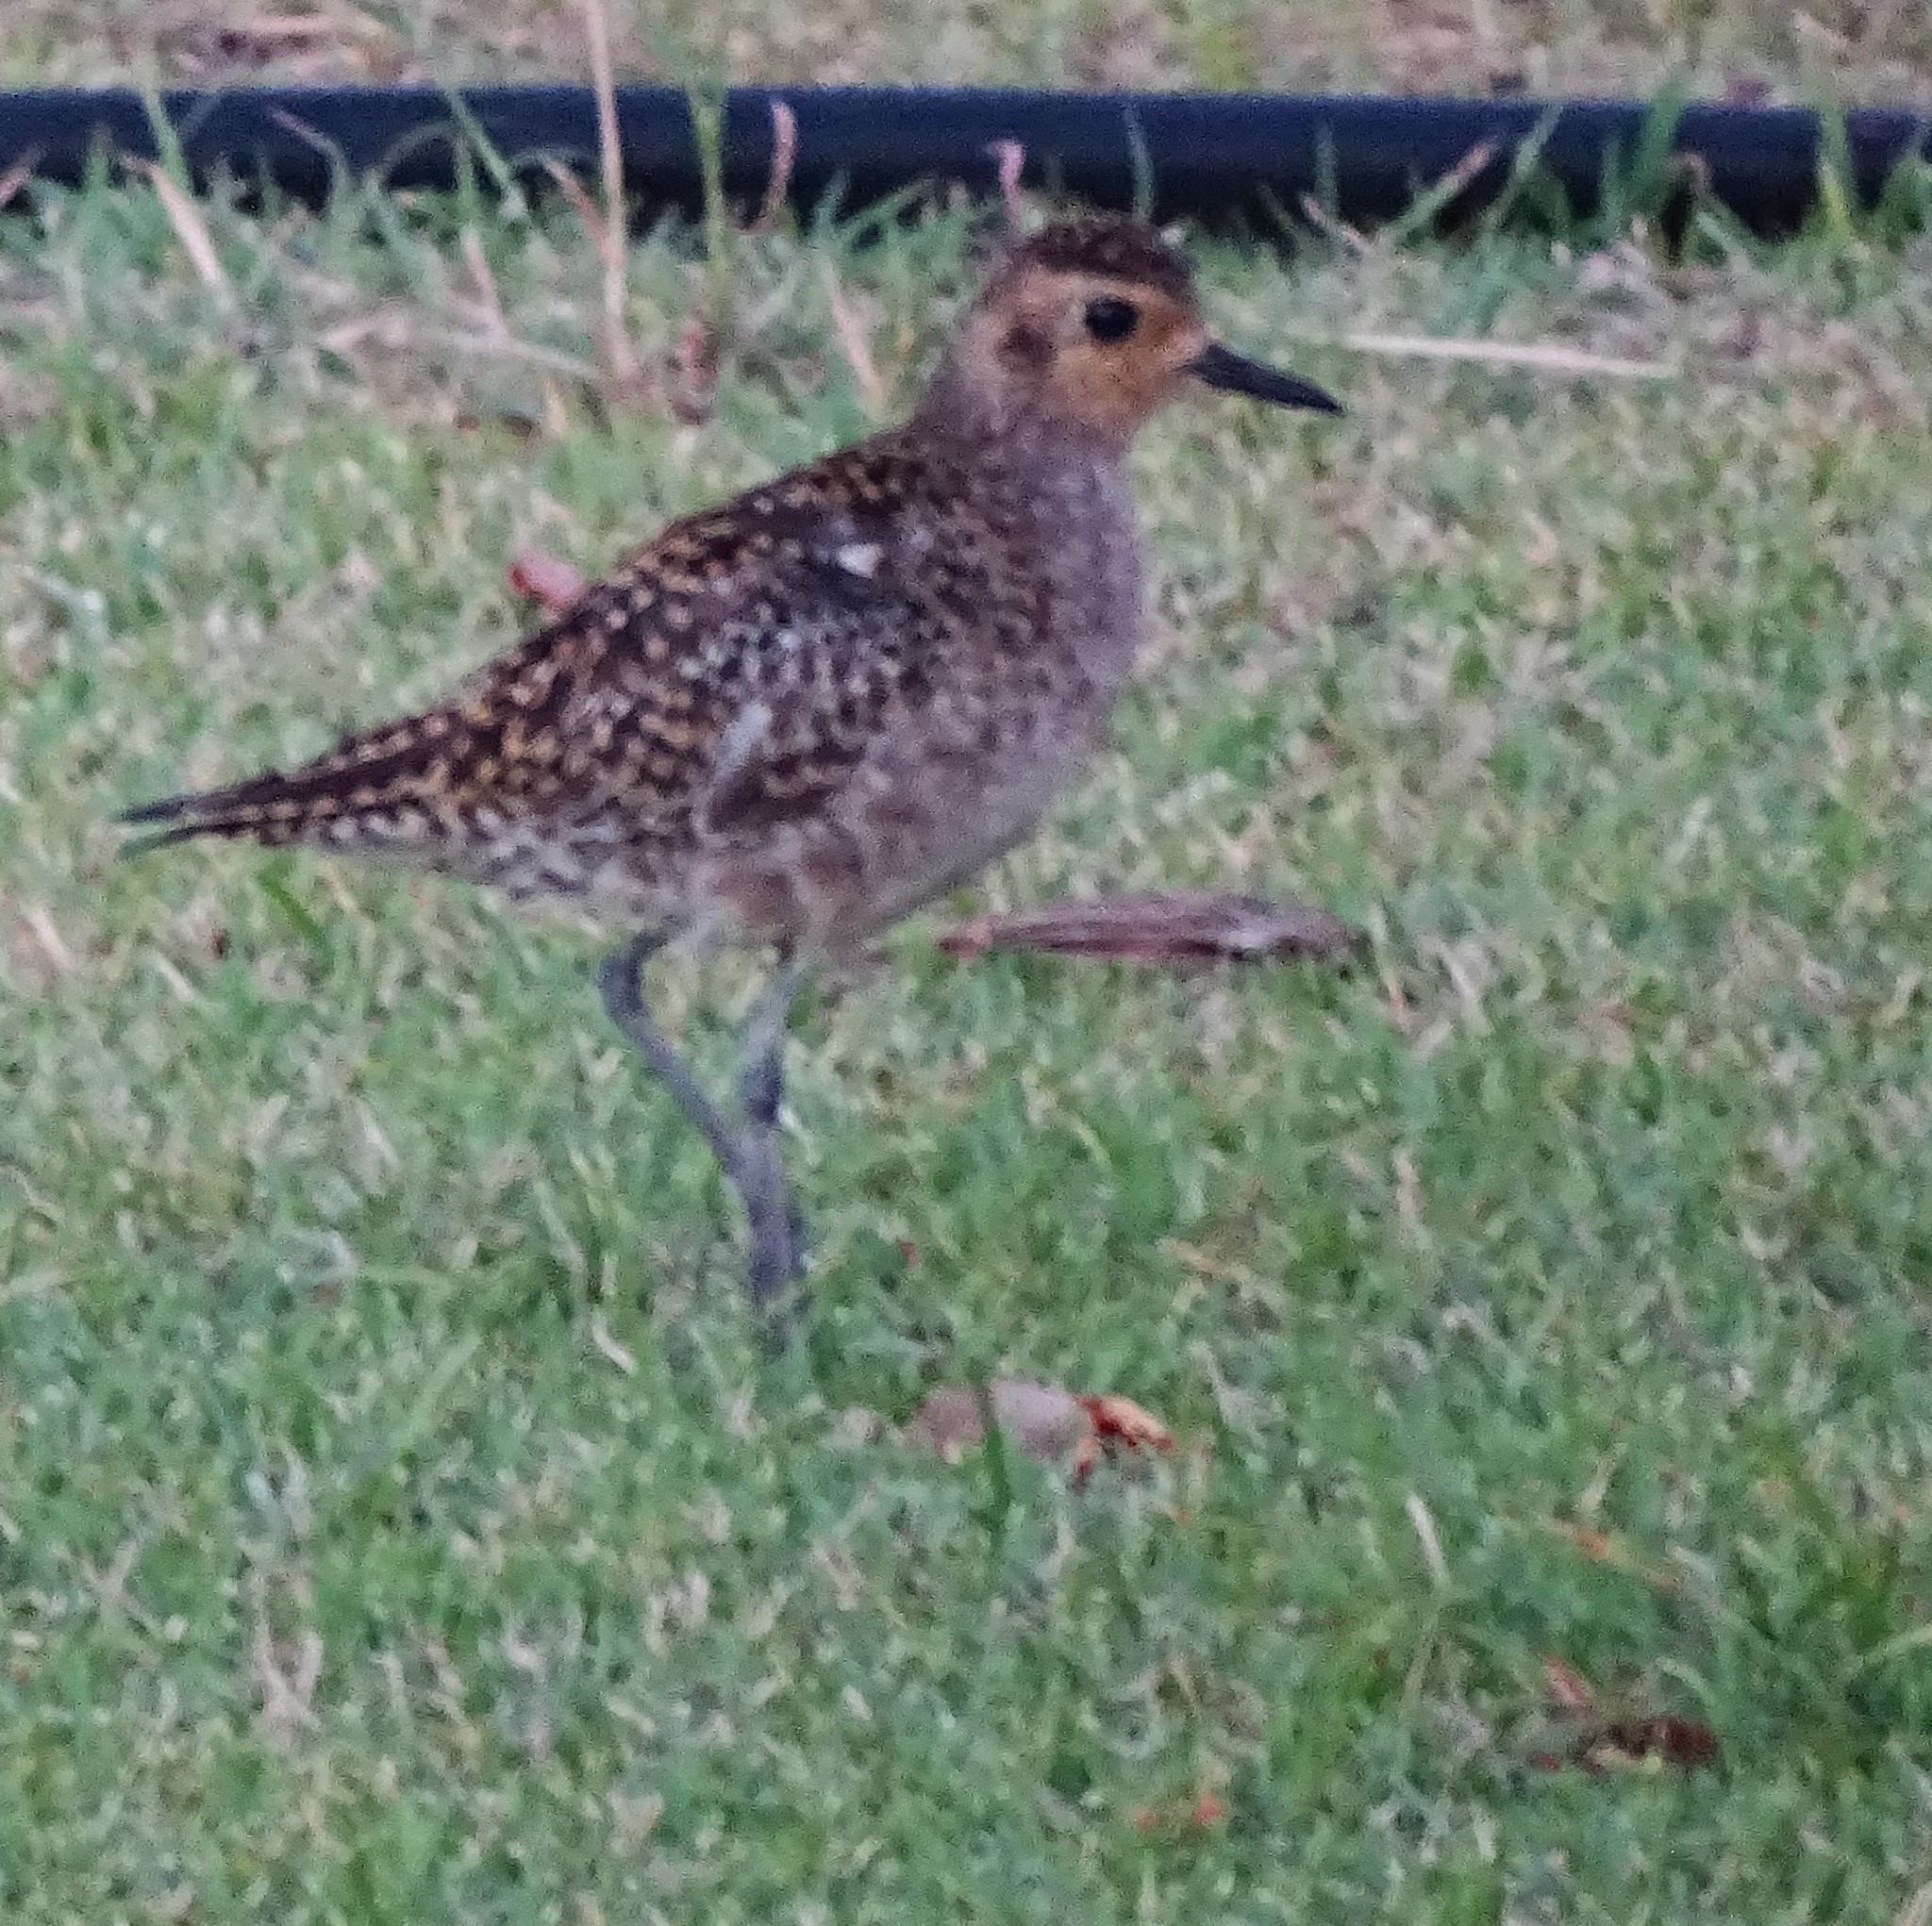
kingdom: Animalia
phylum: Chordata
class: Aves
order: Charadriiformes
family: Charadriidae
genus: Pluvialis
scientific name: Pluvialis fulva
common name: Pacific golden plover
